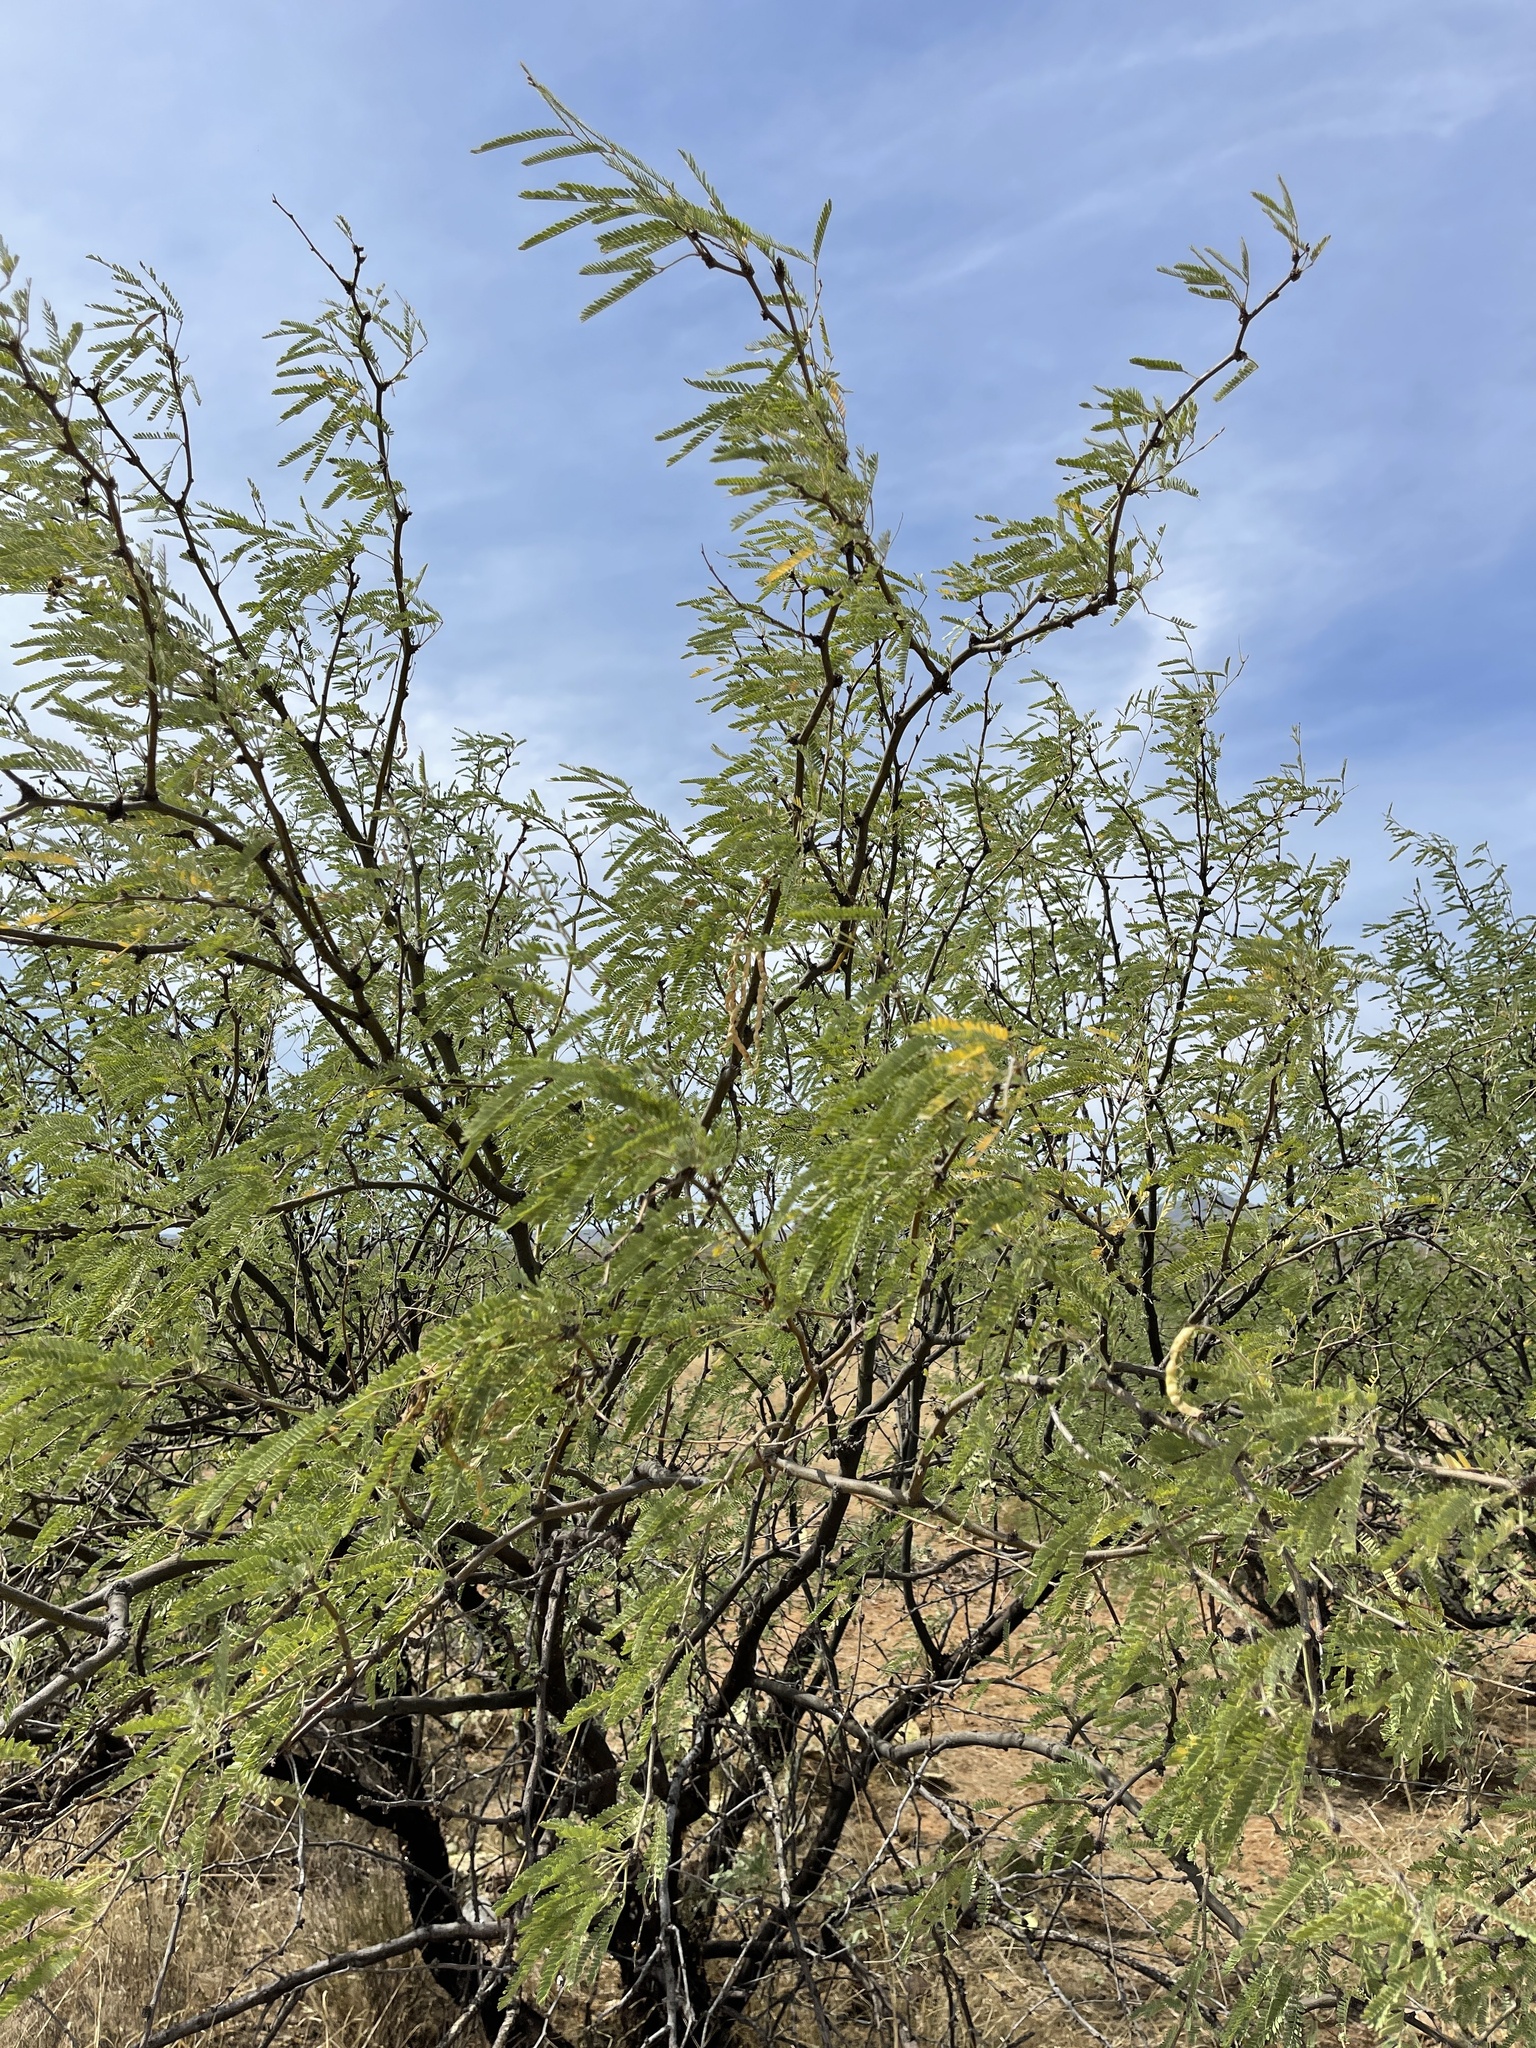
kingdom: Plantae
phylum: Tracheophyta
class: Magnoliopsida
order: Fabales
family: Fabaceae
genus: Prosopis
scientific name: Prosopis velutina
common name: Velvet mesquite
